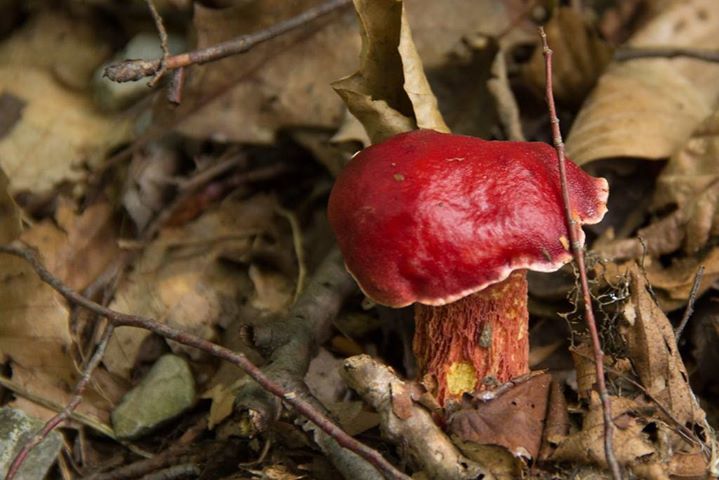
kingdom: Fungi
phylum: Basidiomycota
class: Agaricomycetes
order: Boletales
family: Boletaceae
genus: Butyriboletus
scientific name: Butyriboletus frostii
